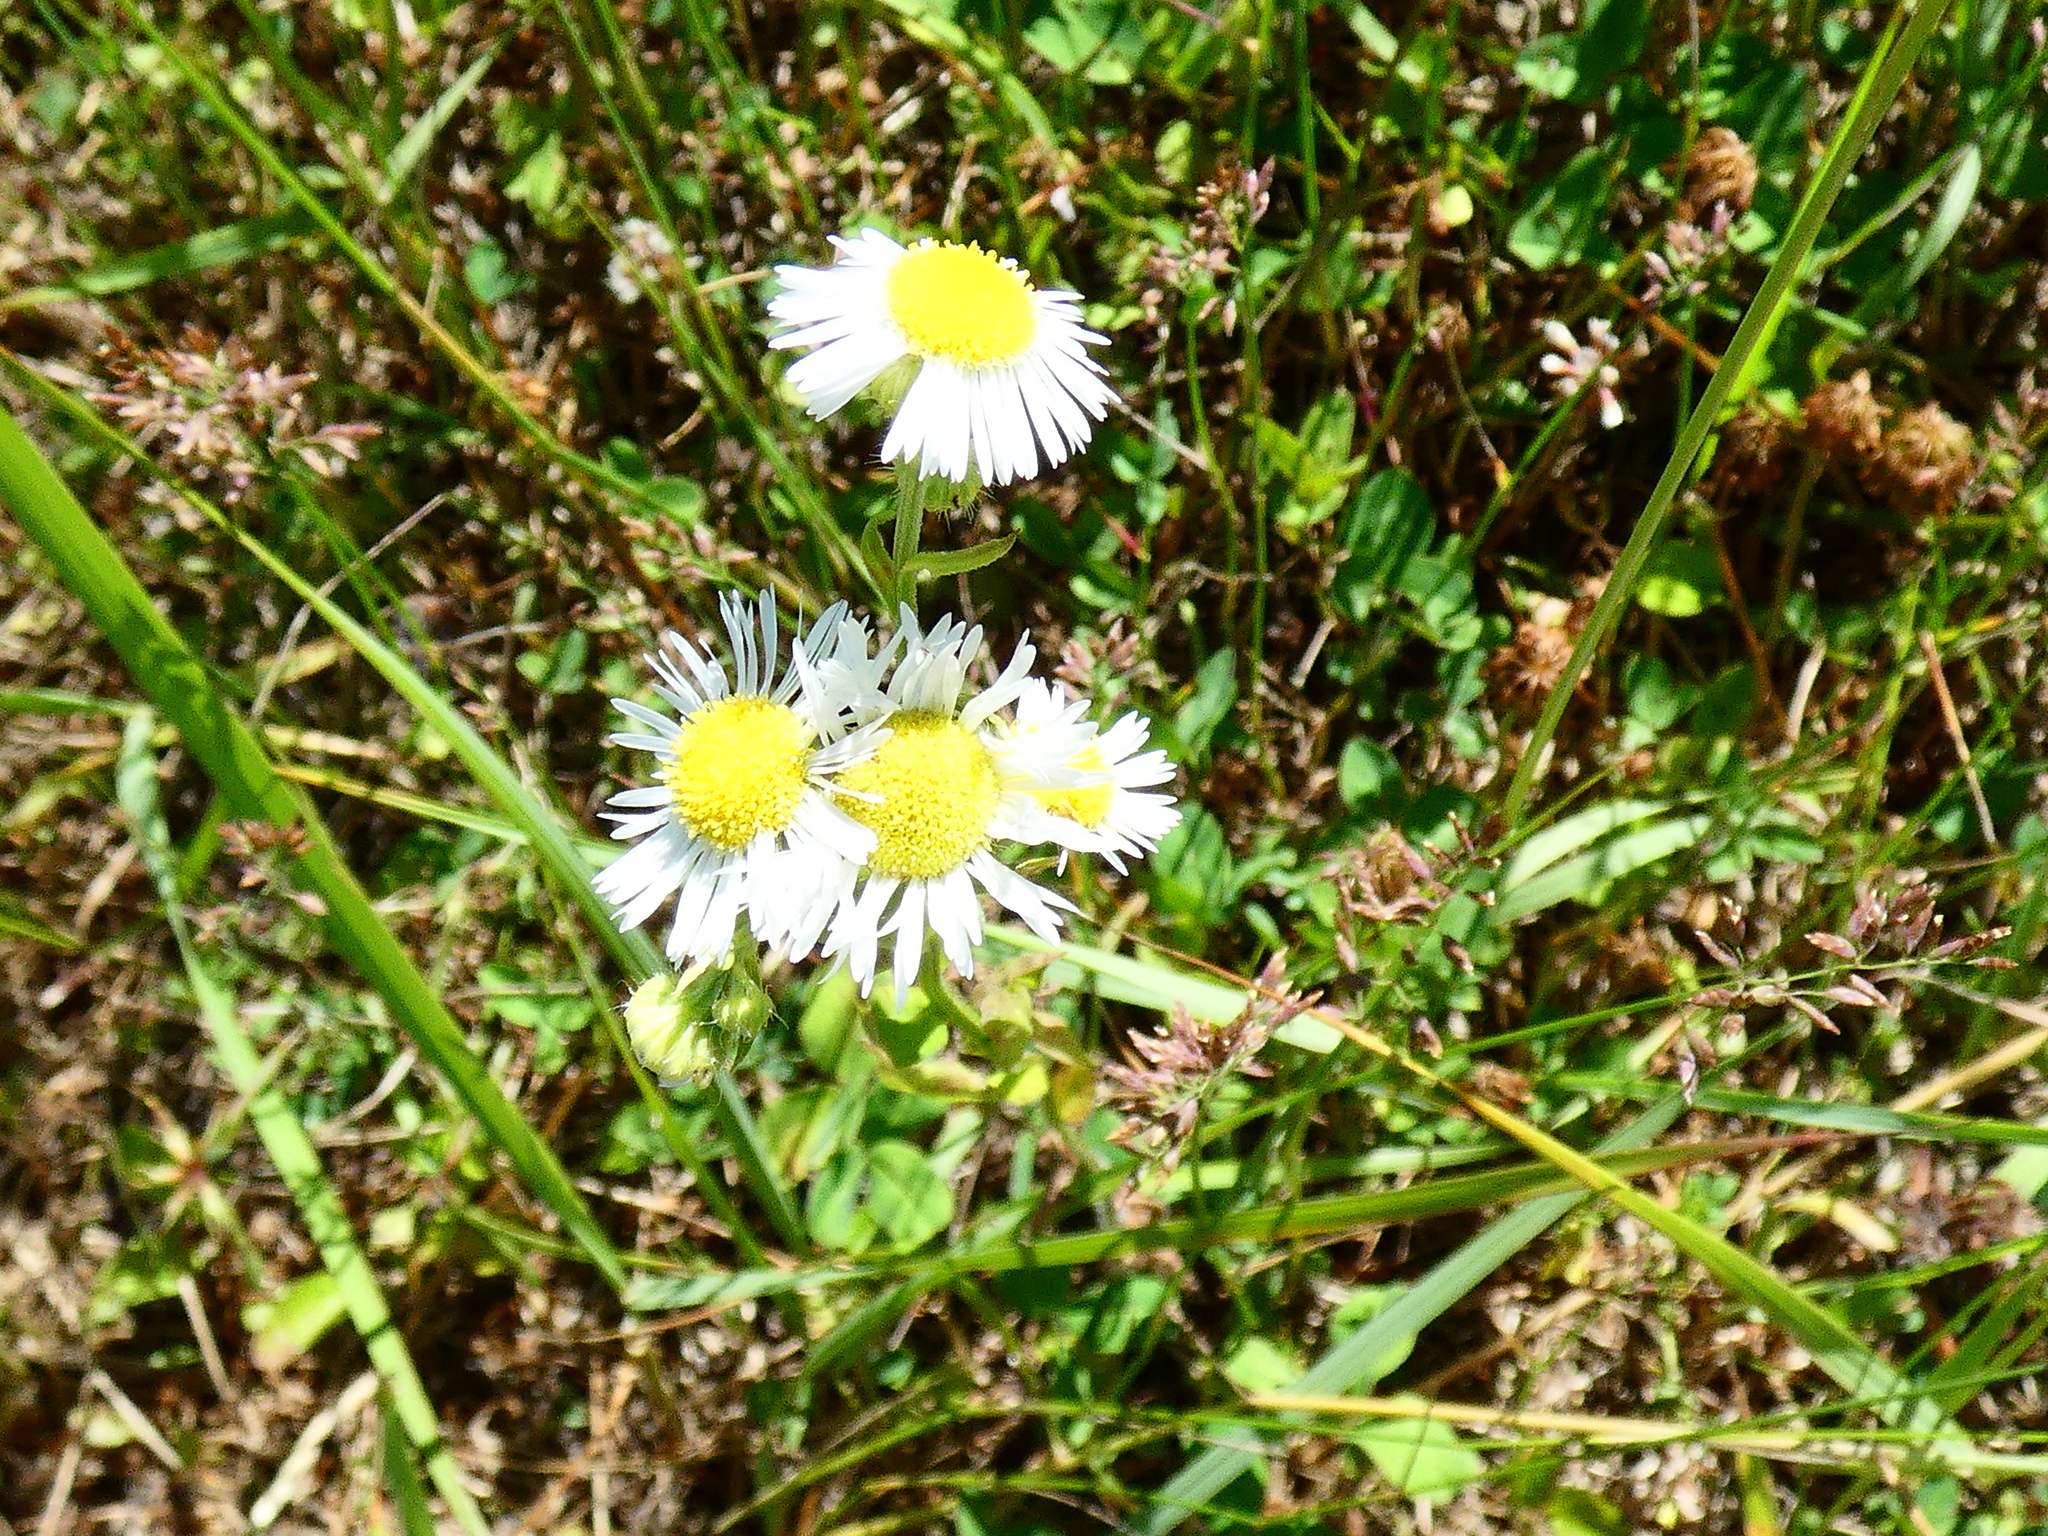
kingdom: Plantae
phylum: Tracheophyta
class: Magnoliopsida
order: Asterales
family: Asteraceae
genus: Erigeron
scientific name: Erigeron annuus
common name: Tall fleabane
